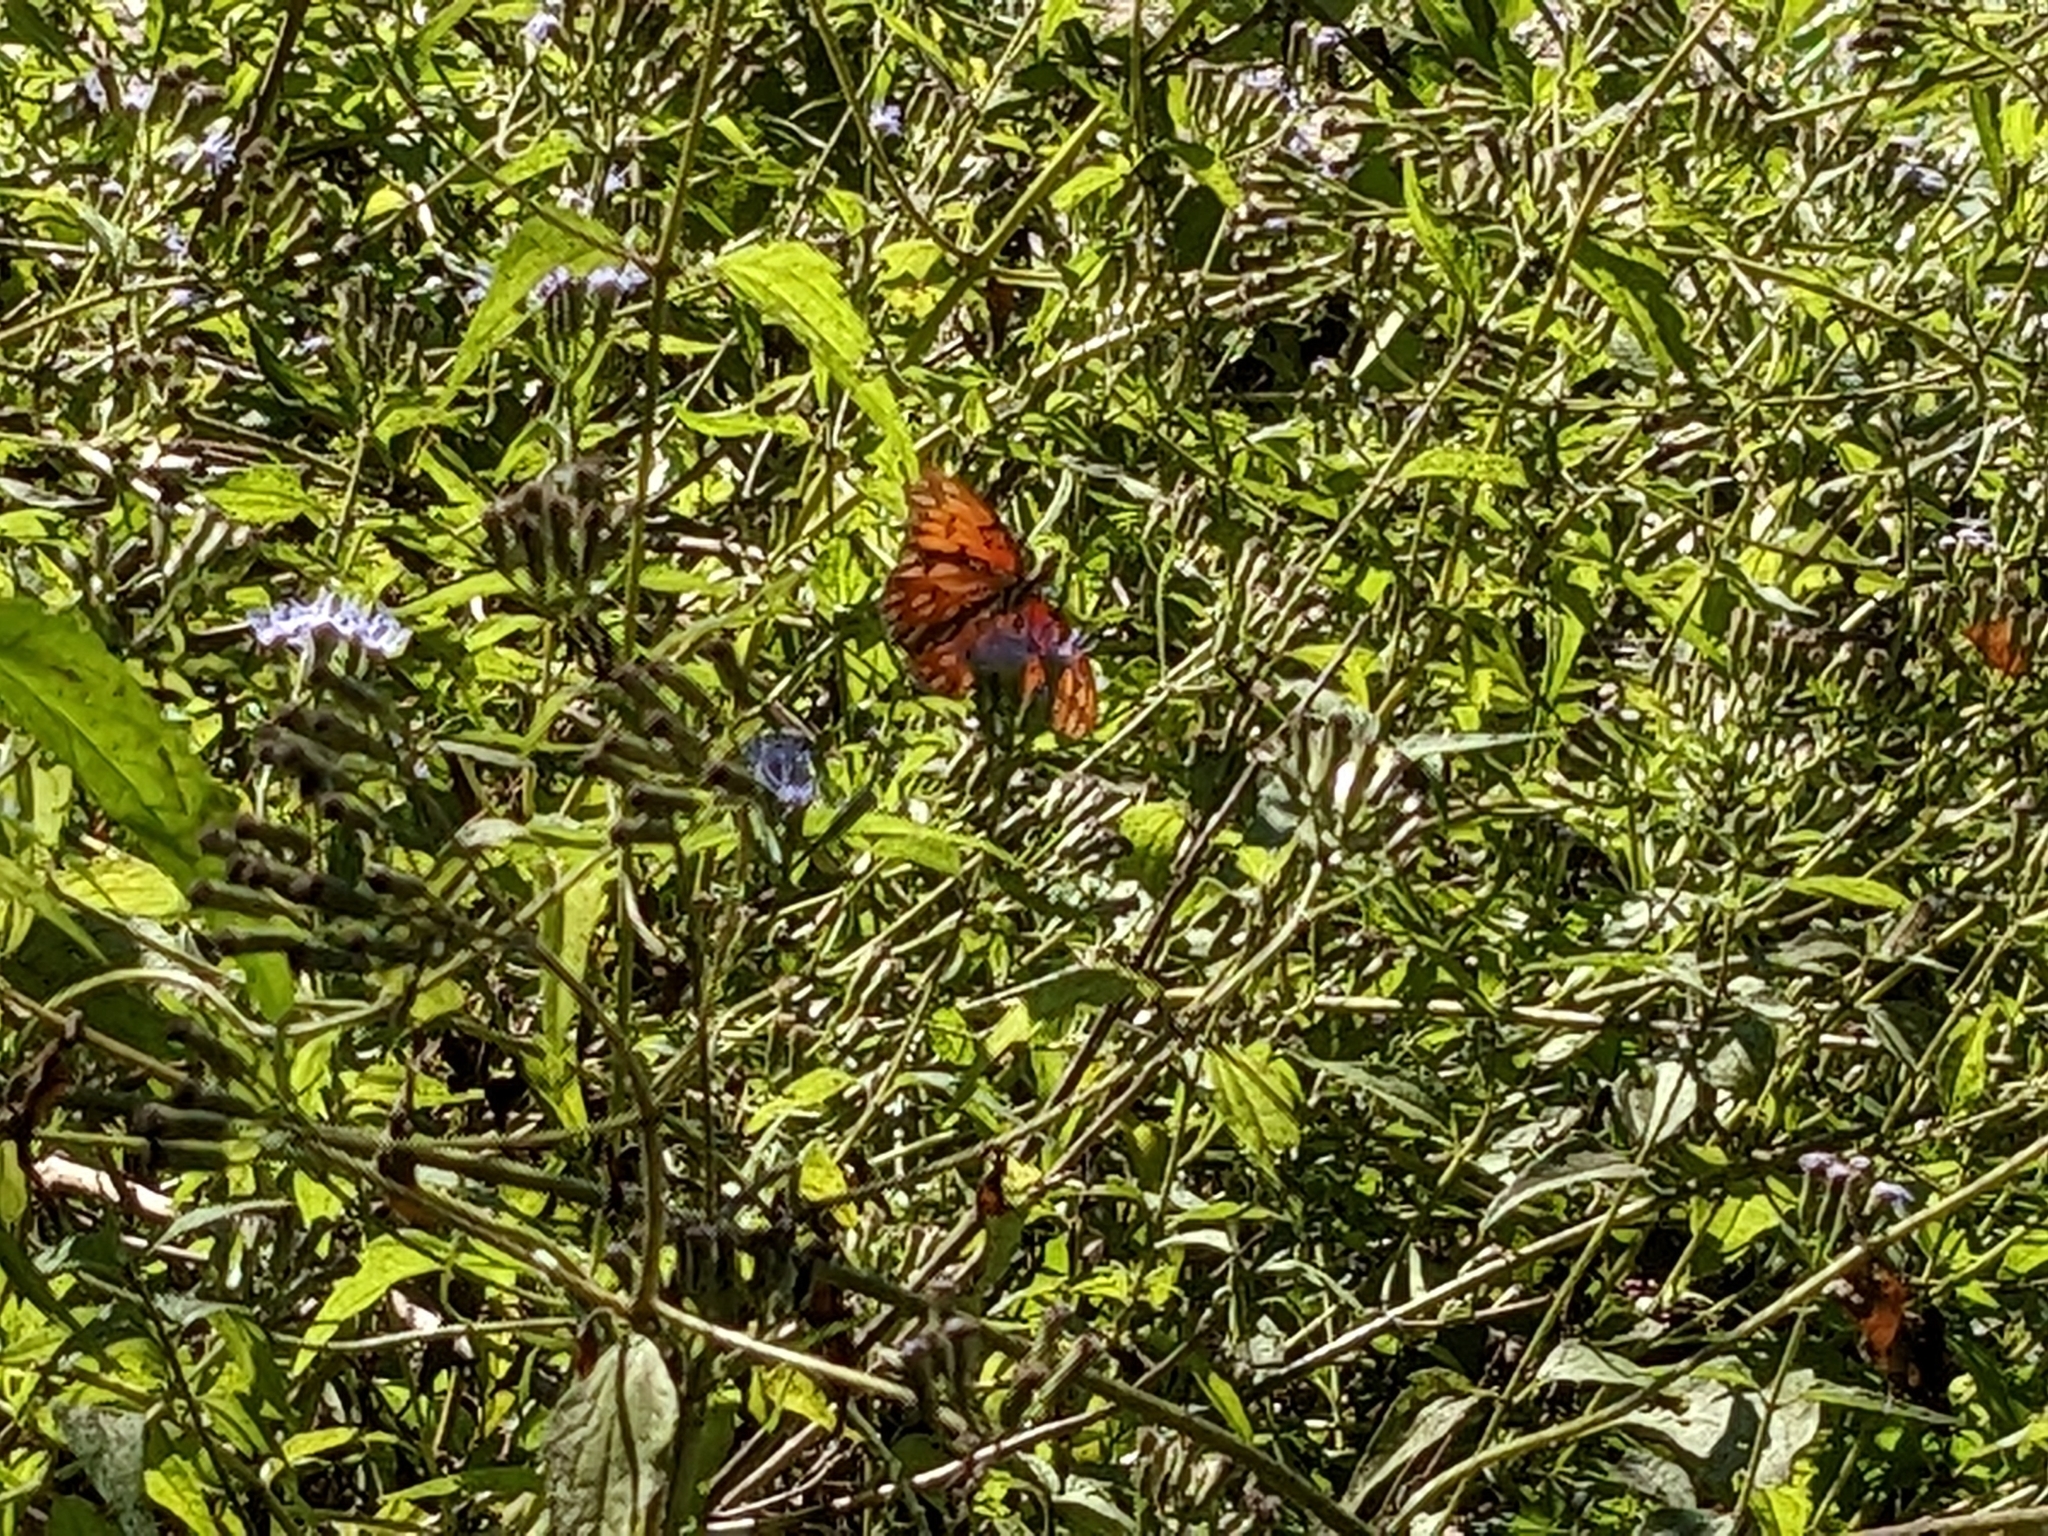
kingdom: Animalia
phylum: Arthropoda
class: Insecta
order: Lepidoptera
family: Nymphalidae
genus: Dione
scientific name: Dione vanillae
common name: Gulf fritillary
